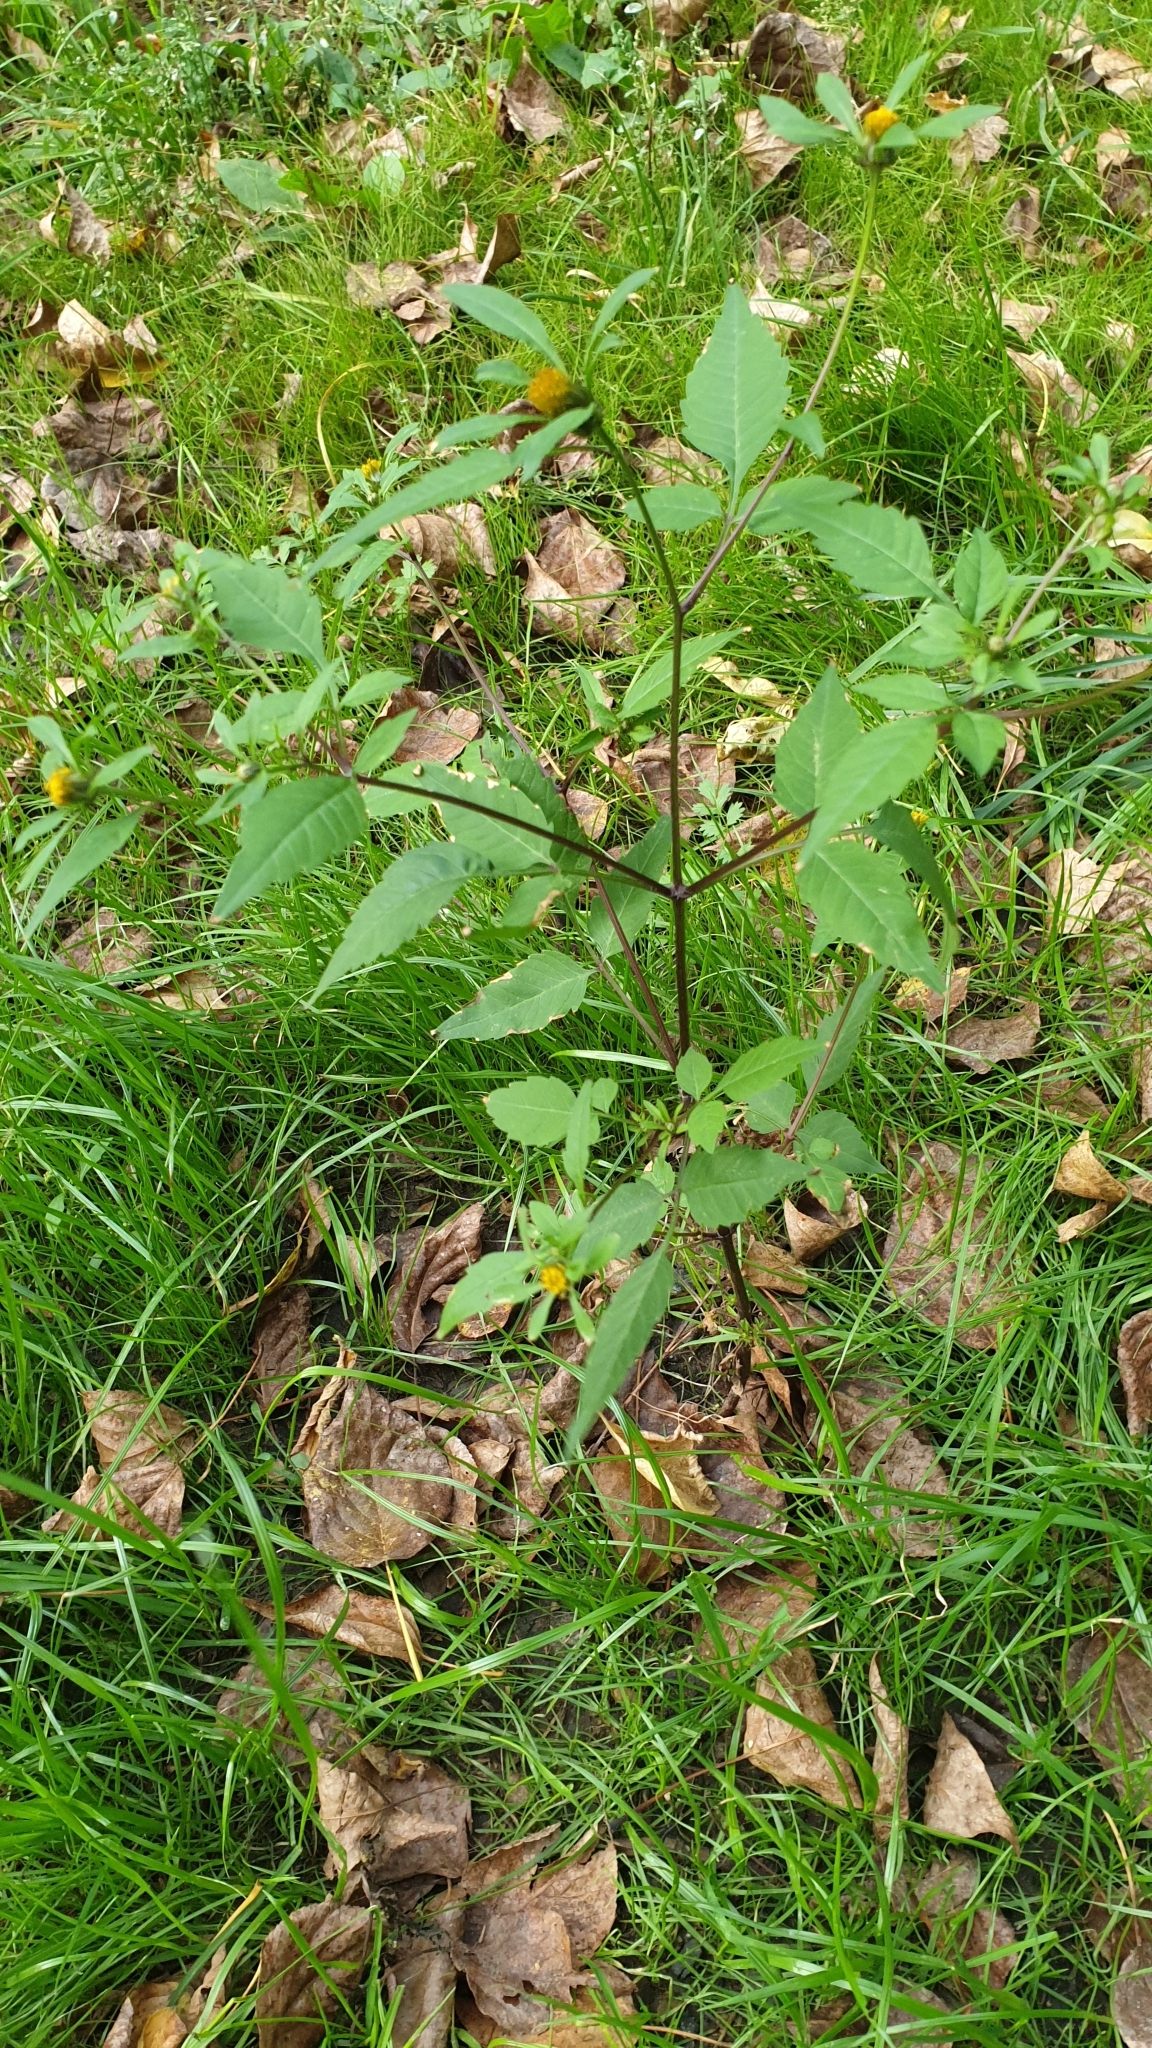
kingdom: Plantae
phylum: Tracheophyta
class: Magnoliopsida
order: Asterales
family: Asteraceae
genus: Bidens
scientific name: Bidens frondosa
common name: Beggarticks
